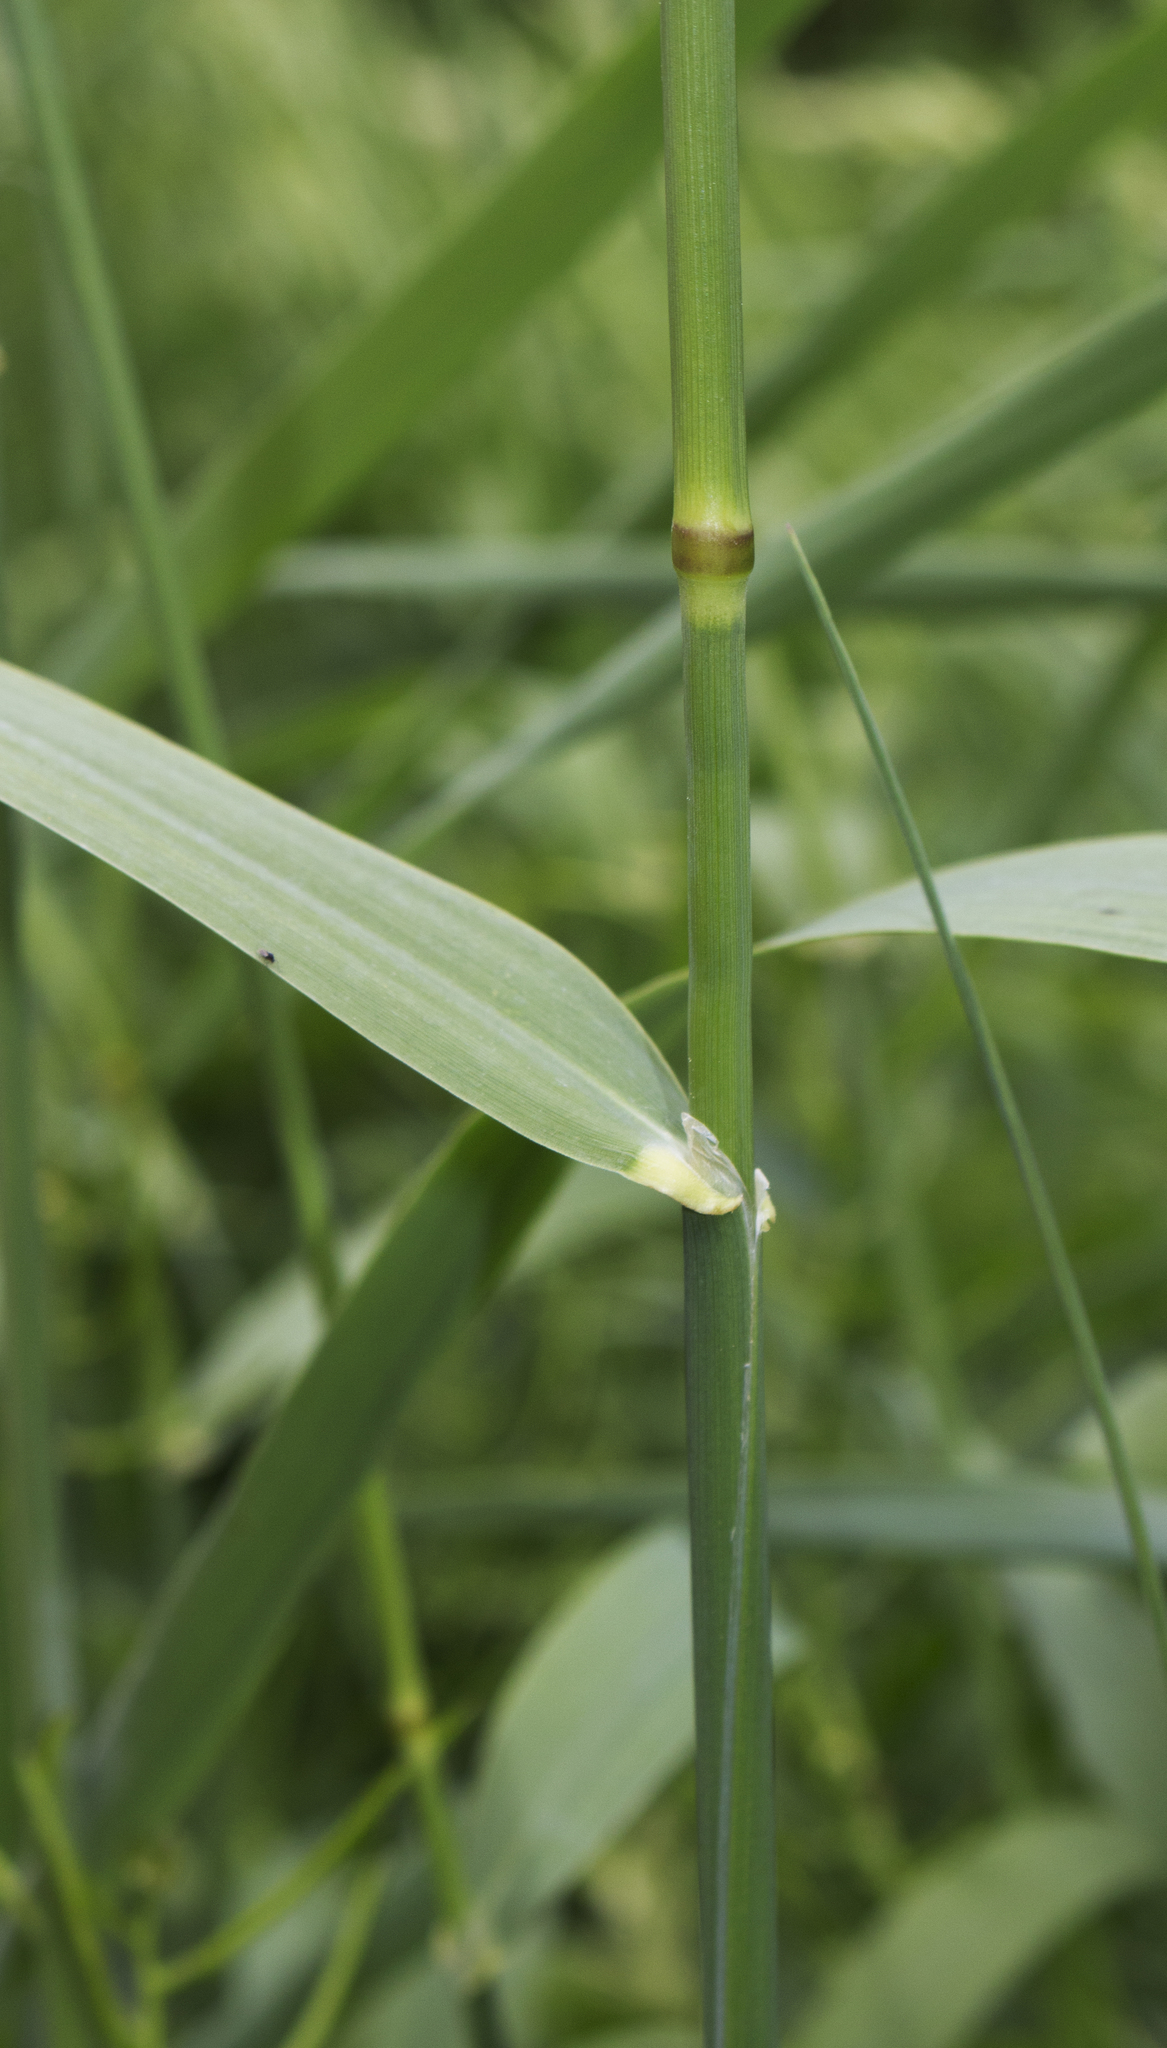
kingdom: Plantae
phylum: Tracheophyta
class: Liliopsida
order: Poales
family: Poaceae
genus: Phalaris
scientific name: Phalaris arundinacea
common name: Reed canary-grass
